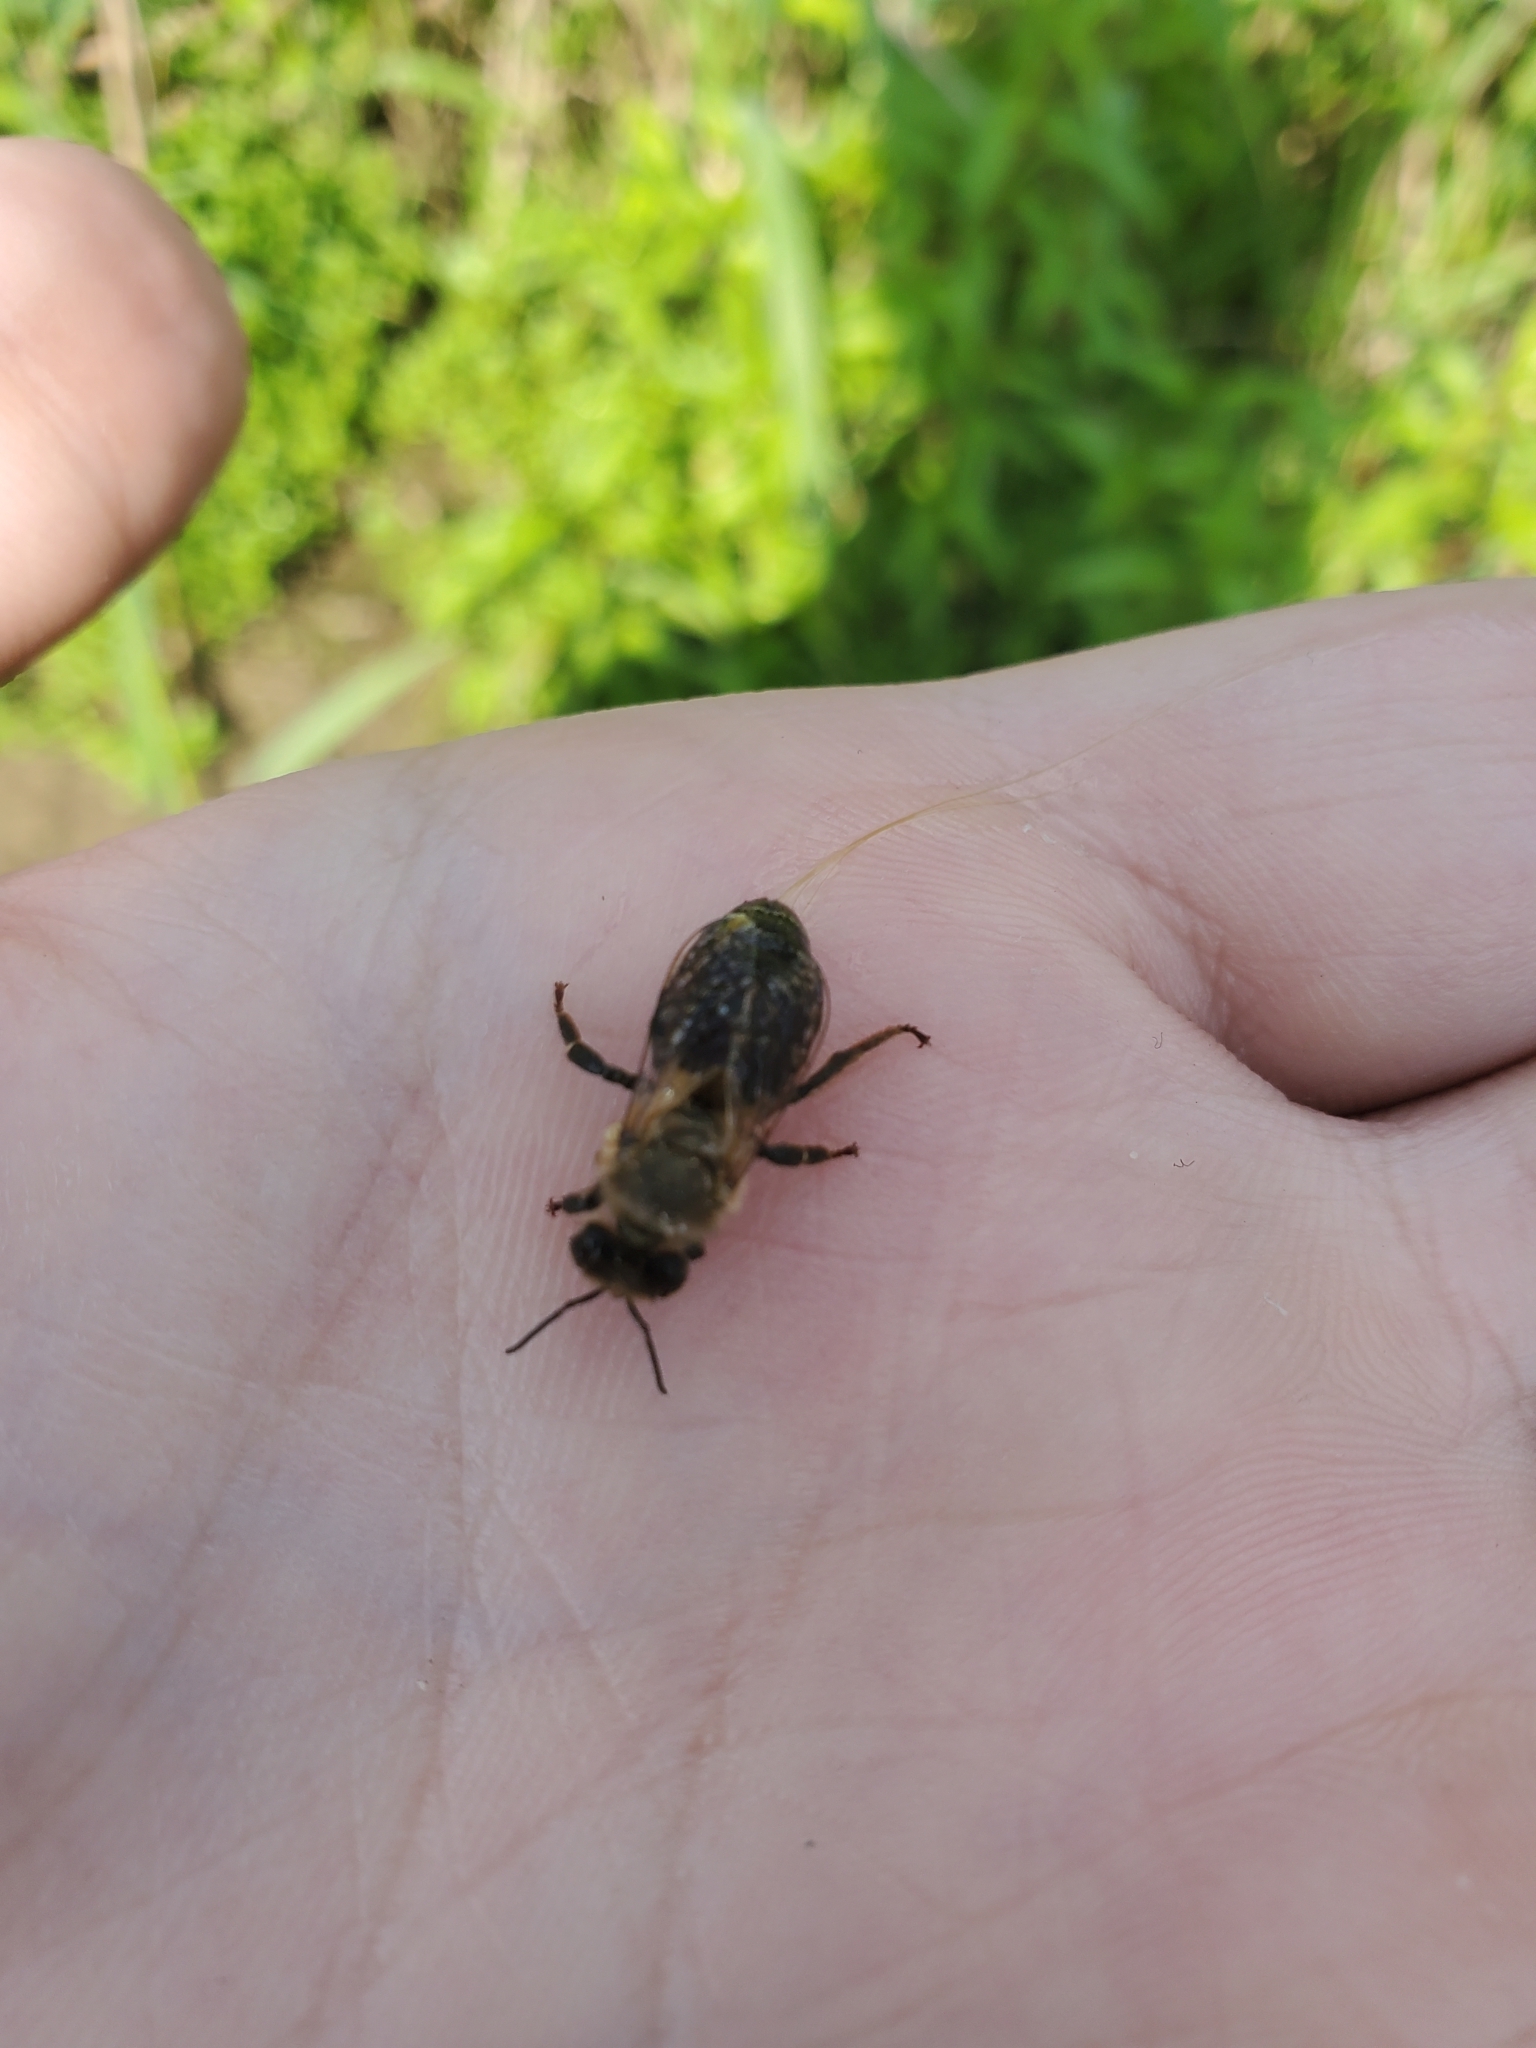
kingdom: Animalia
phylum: Arthropoda
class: Insecta
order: Hymenoptera
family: Apidae
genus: Apis
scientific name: Apis mellifera
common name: Honey bee
